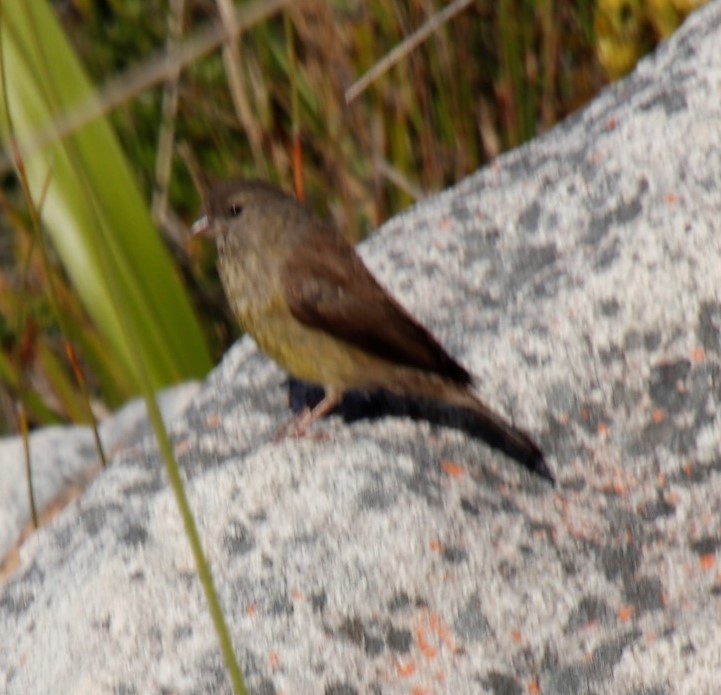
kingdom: Animalia
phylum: Chordata
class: Aves
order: Passeriformes
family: Fringillidae
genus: Crithagra
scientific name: Crithagra totta
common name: Cape siskin
